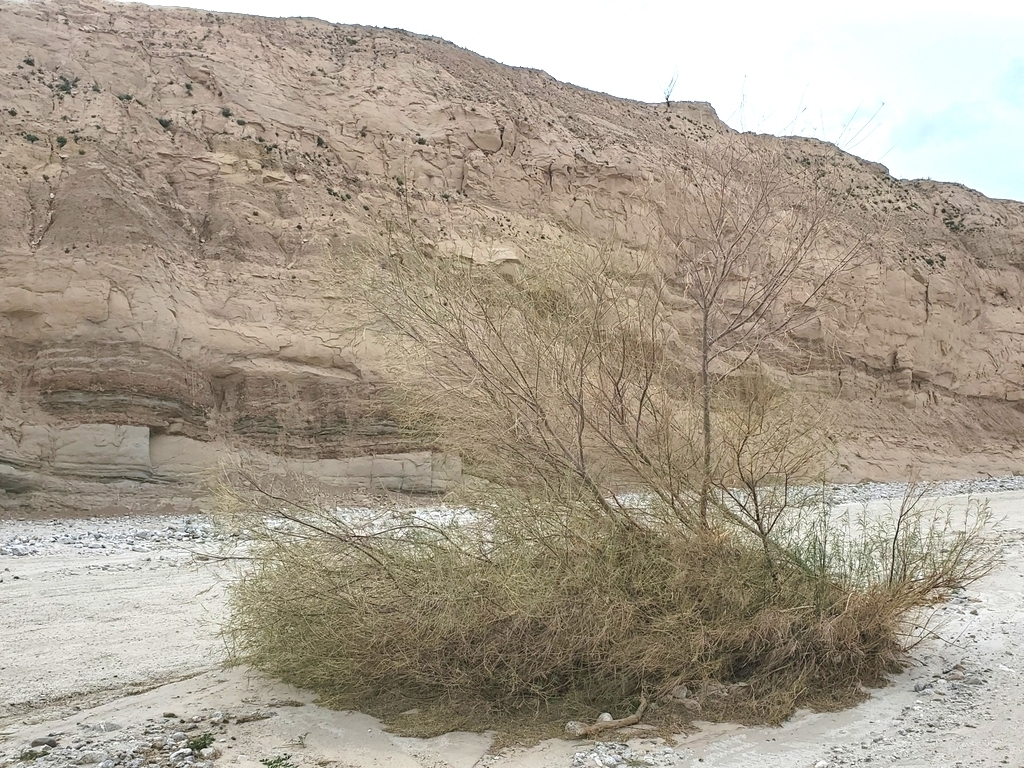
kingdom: Plantae
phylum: Tracheophyta
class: Magnoliopsida
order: Lamiales
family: Bignoniaceae
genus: Chilopsis
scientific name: Chilopsis linearis
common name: Desert-willow
